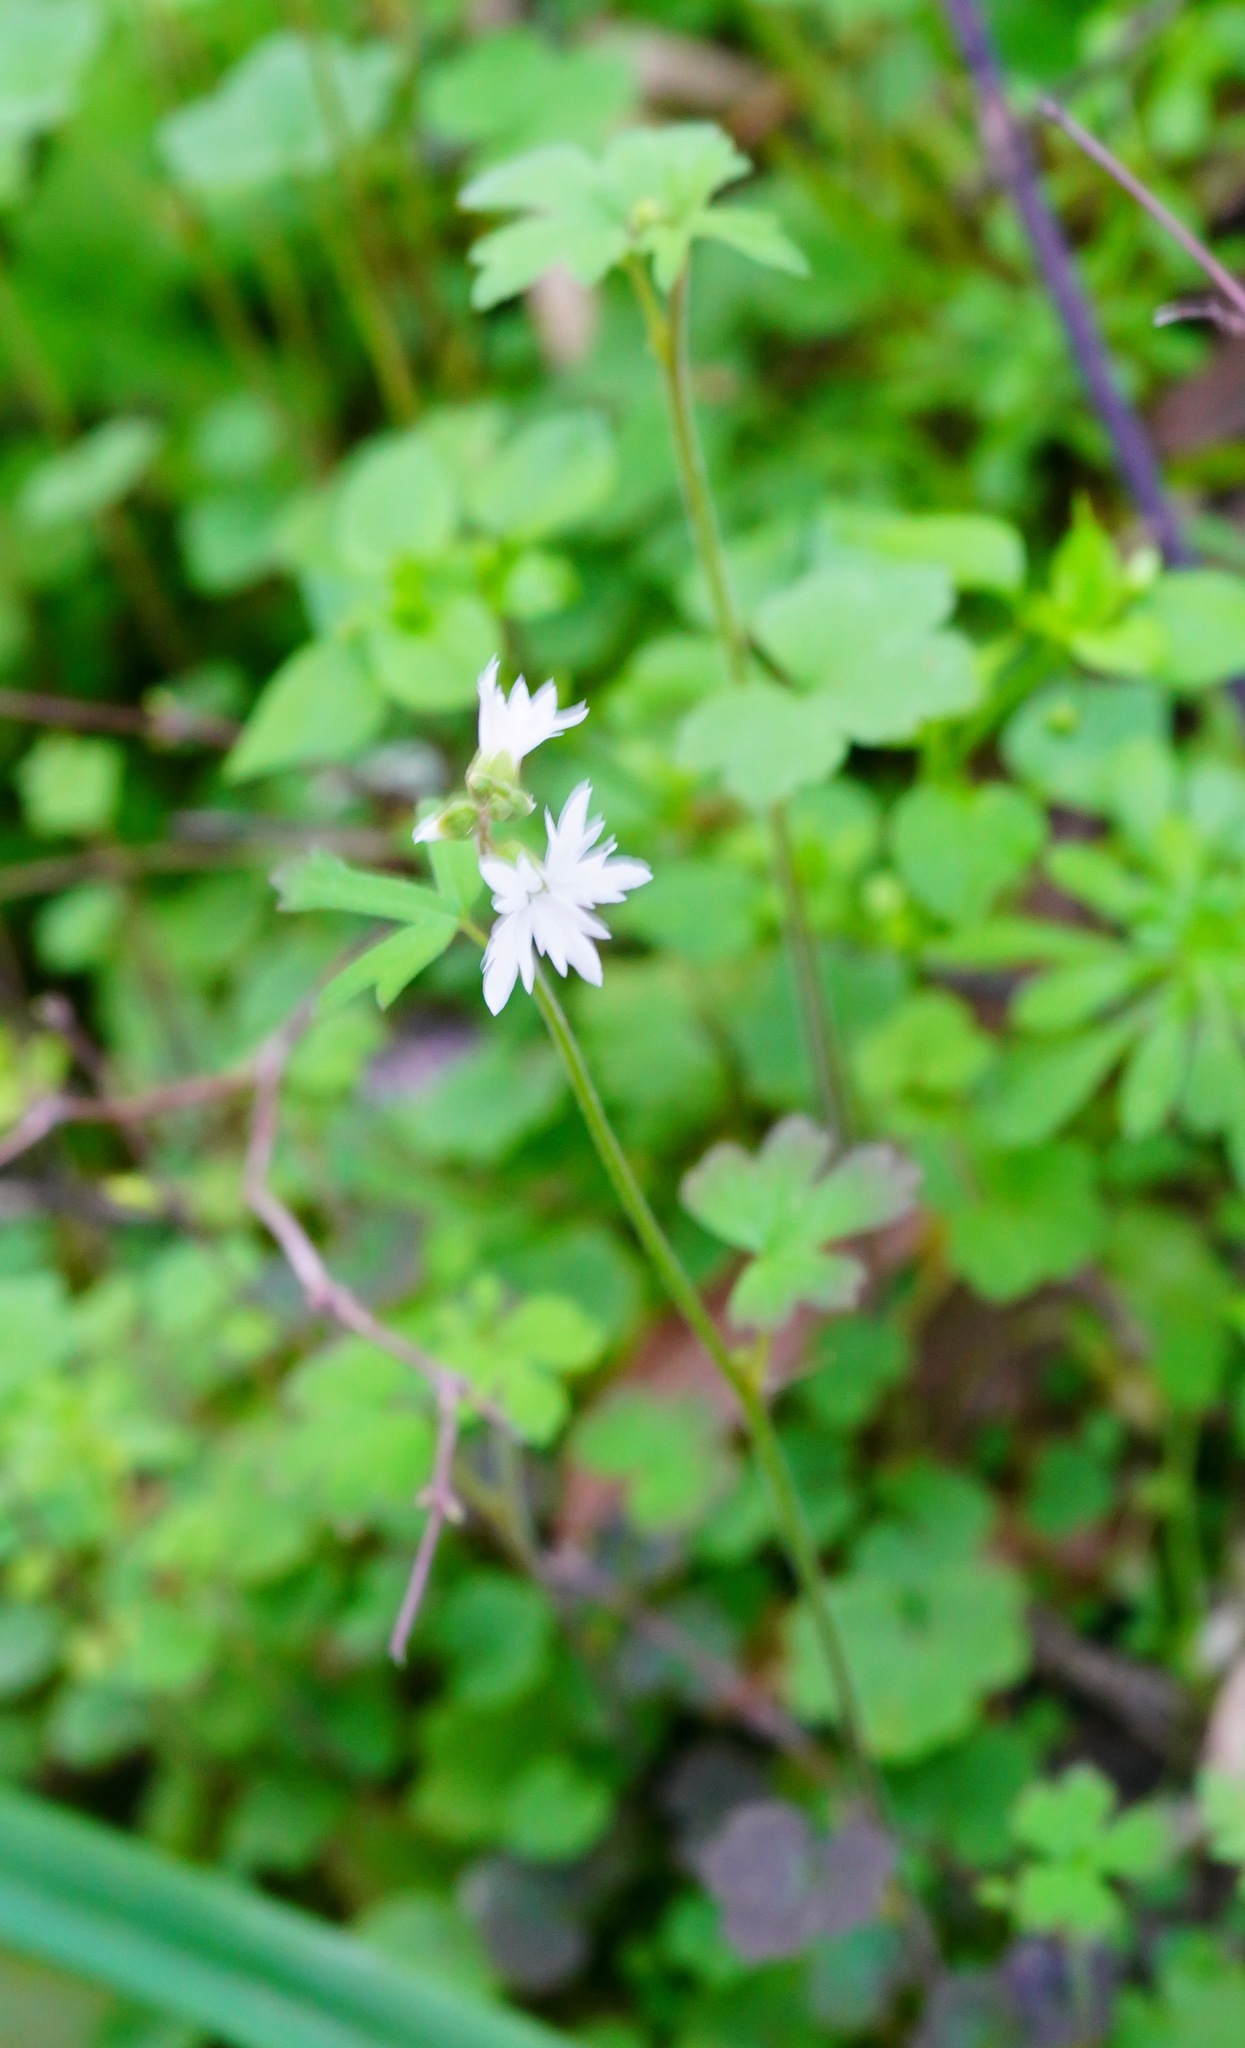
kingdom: Plantae
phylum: Tracheophyta
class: Magnoliopsida
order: Saxifragales
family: Saxifragaceae
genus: Lithophragma
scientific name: Lithophragma heterophyllum
